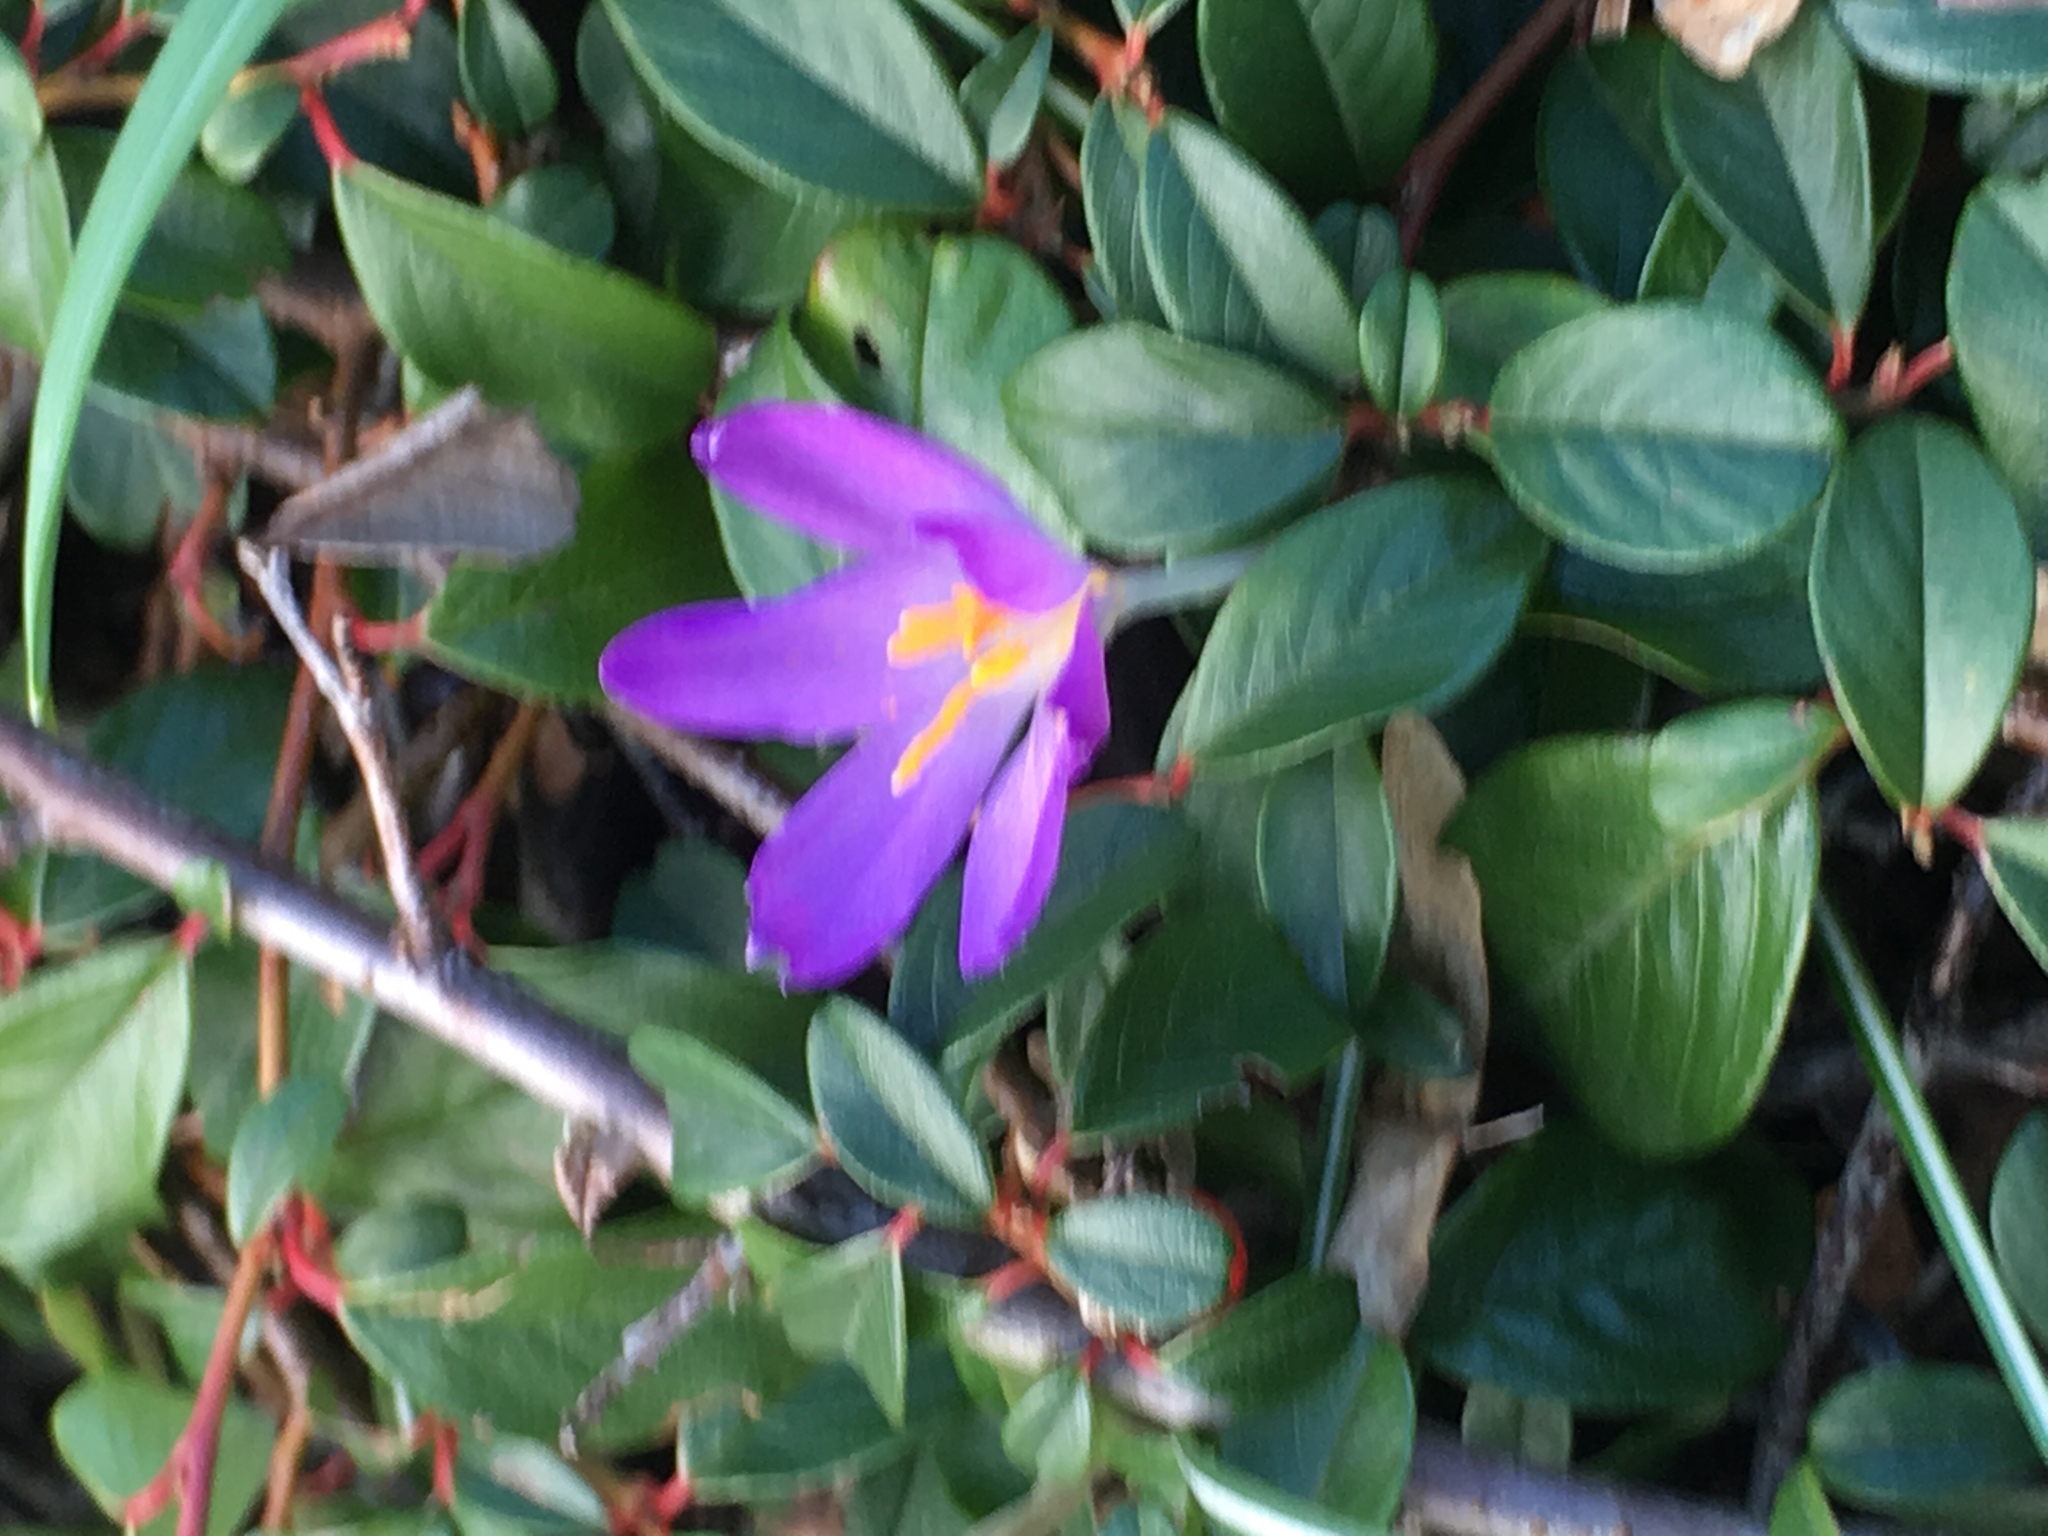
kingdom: Plantae
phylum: Tracheophyta
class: Liliopsida
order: Asparagales
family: Iridaceae
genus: Crocus
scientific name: Crocus tommasinianus
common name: Early crocus
